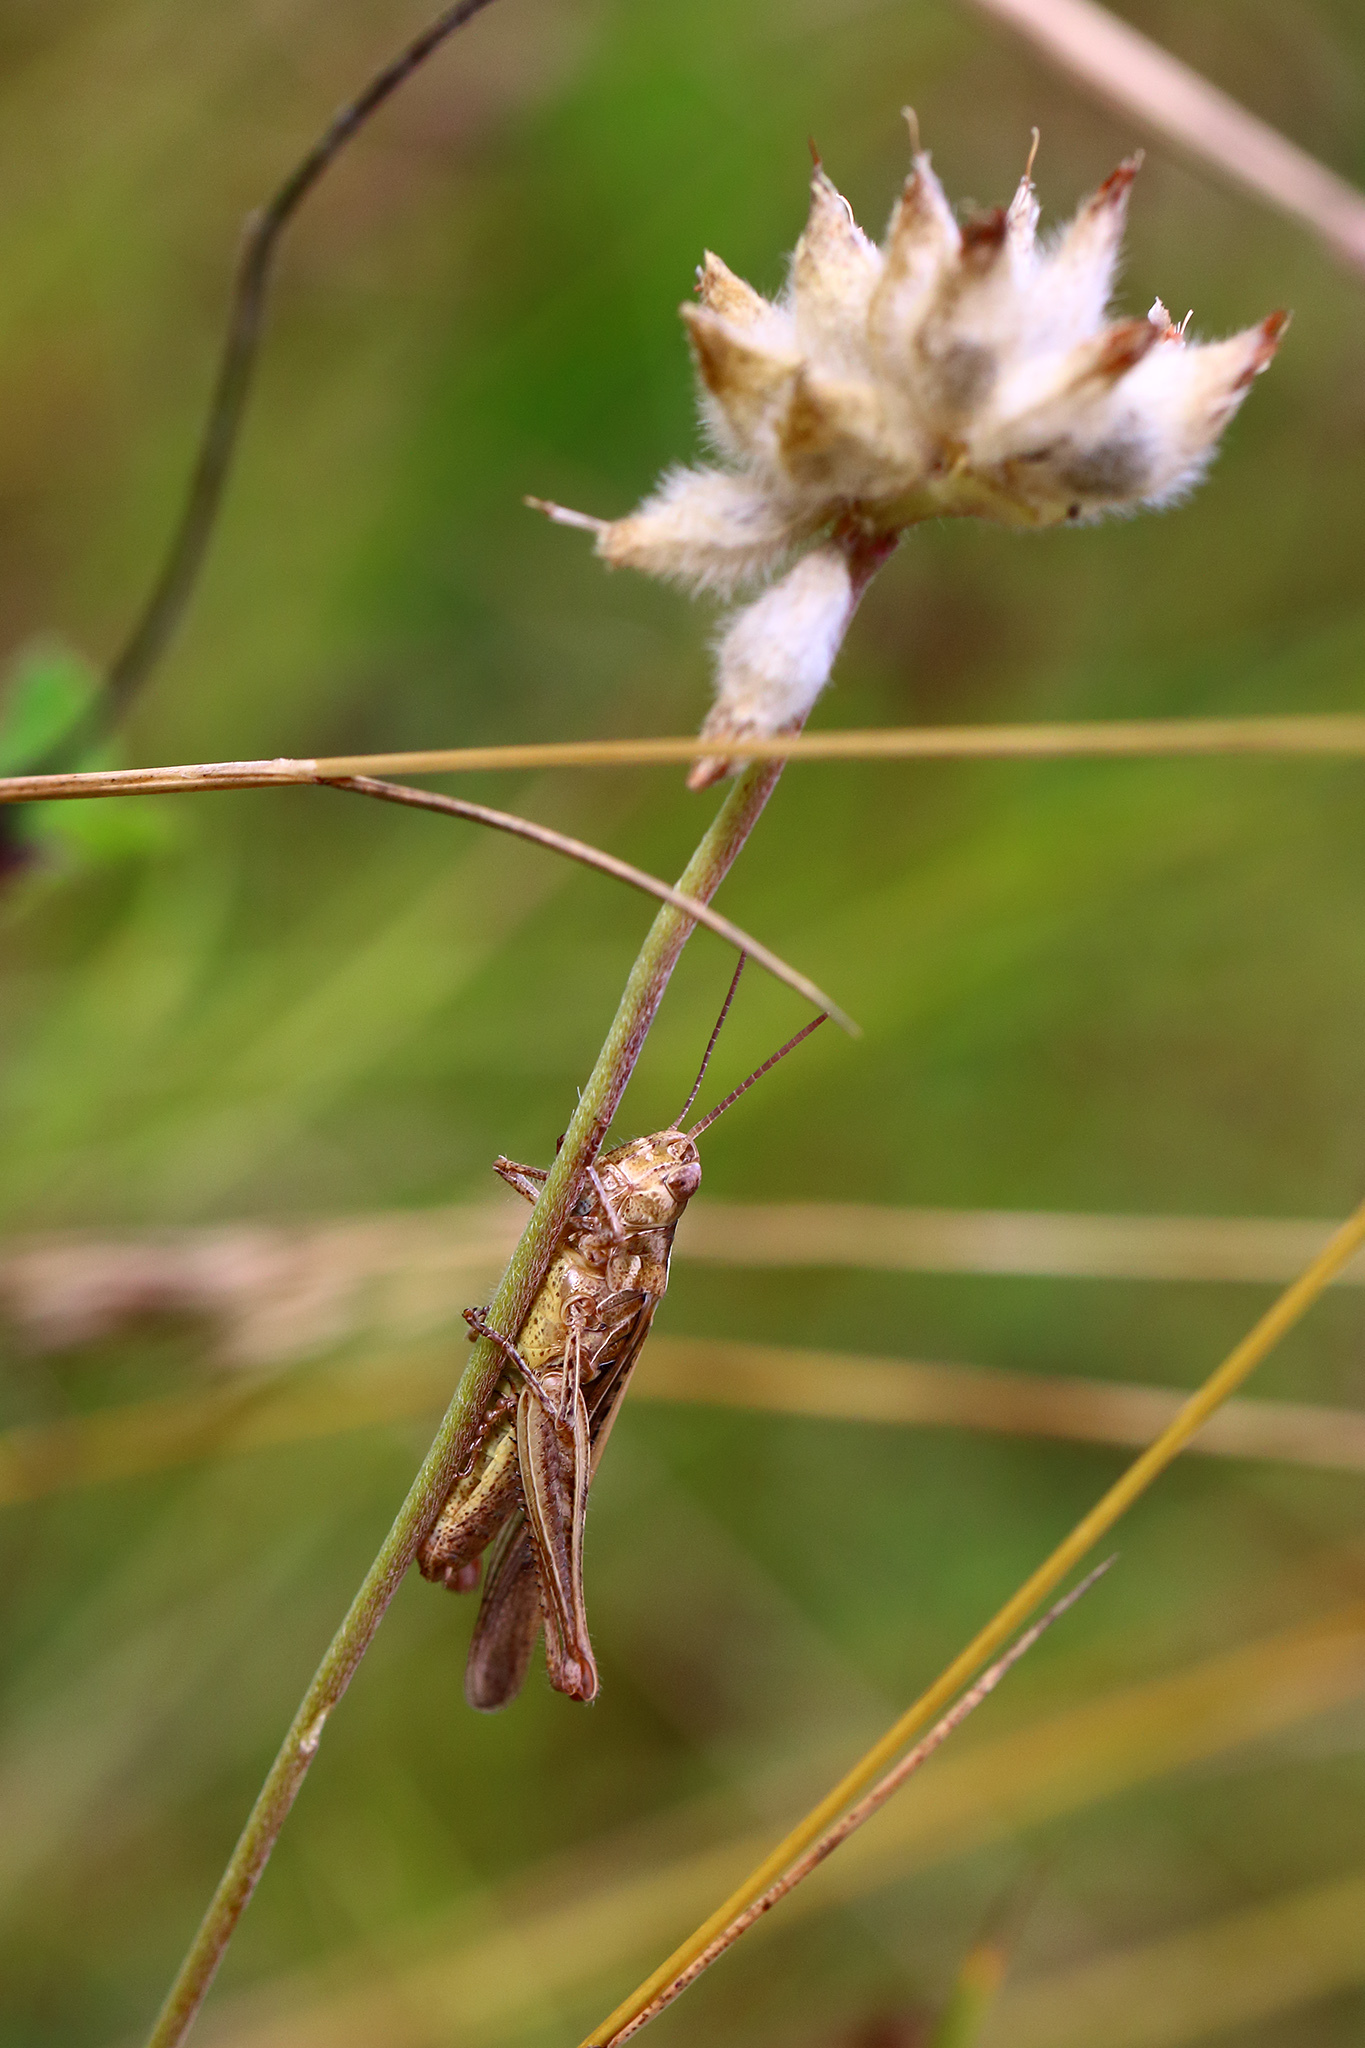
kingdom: Animalia
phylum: Arthropoda
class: Insecta
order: Orthoptera
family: Acrididae
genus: Chorthippus
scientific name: Chorthippus brunneus
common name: Field grasshopper
